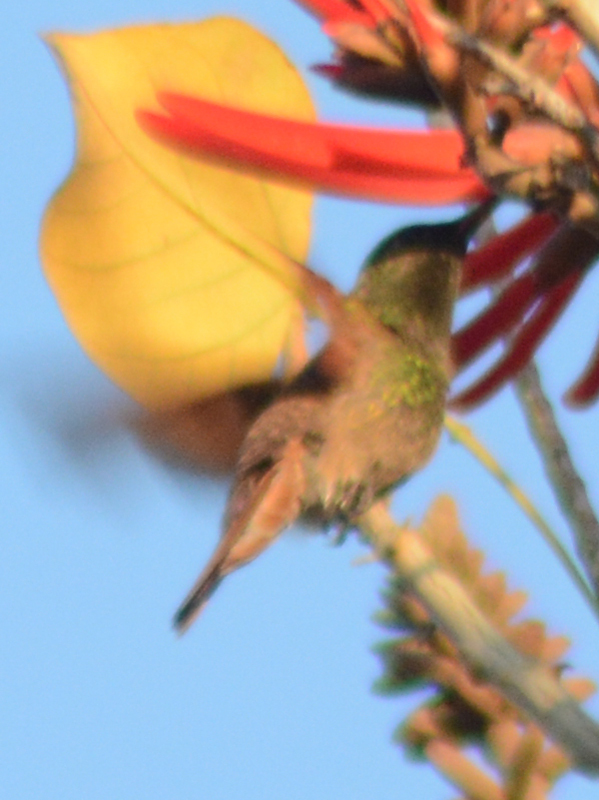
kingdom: Animalia
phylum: Chordata
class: Aves
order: Apodiformes
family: Trochilidae
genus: Saucerottia
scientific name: Saucerottia beryllina
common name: Berylline hummingbird
